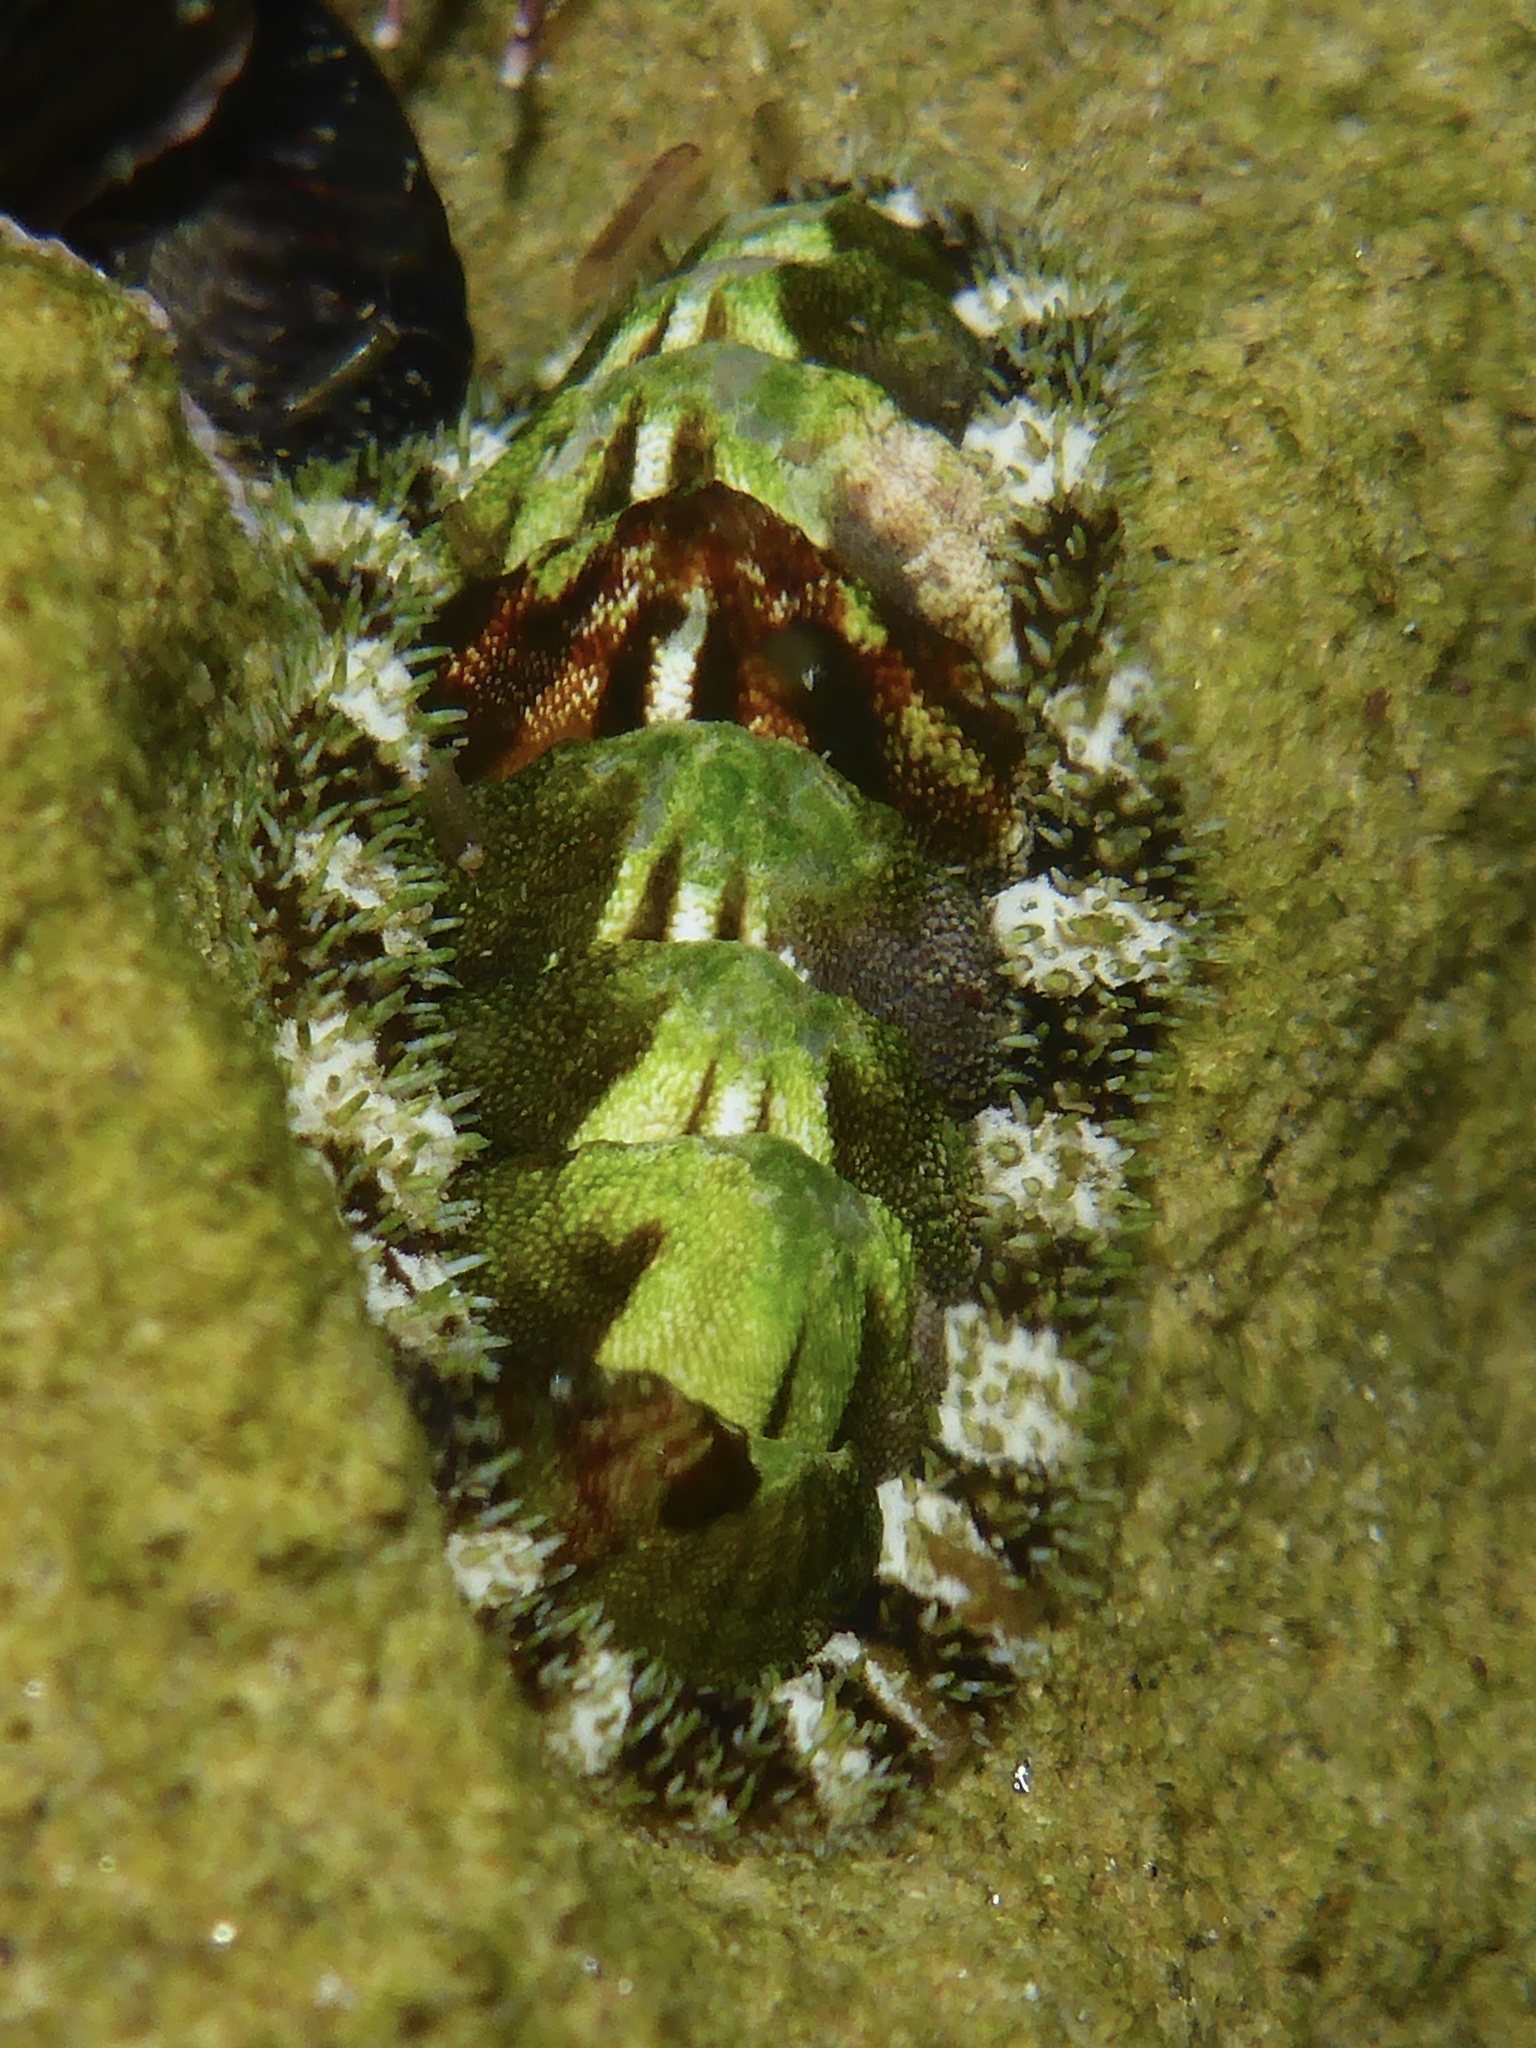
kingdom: Animalia
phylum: Mollusca
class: Polyplacophora
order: Chitonida
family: Tonicellidae
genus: Nuttallina
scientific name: Nuttallina californica
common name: California nuttall chiton
